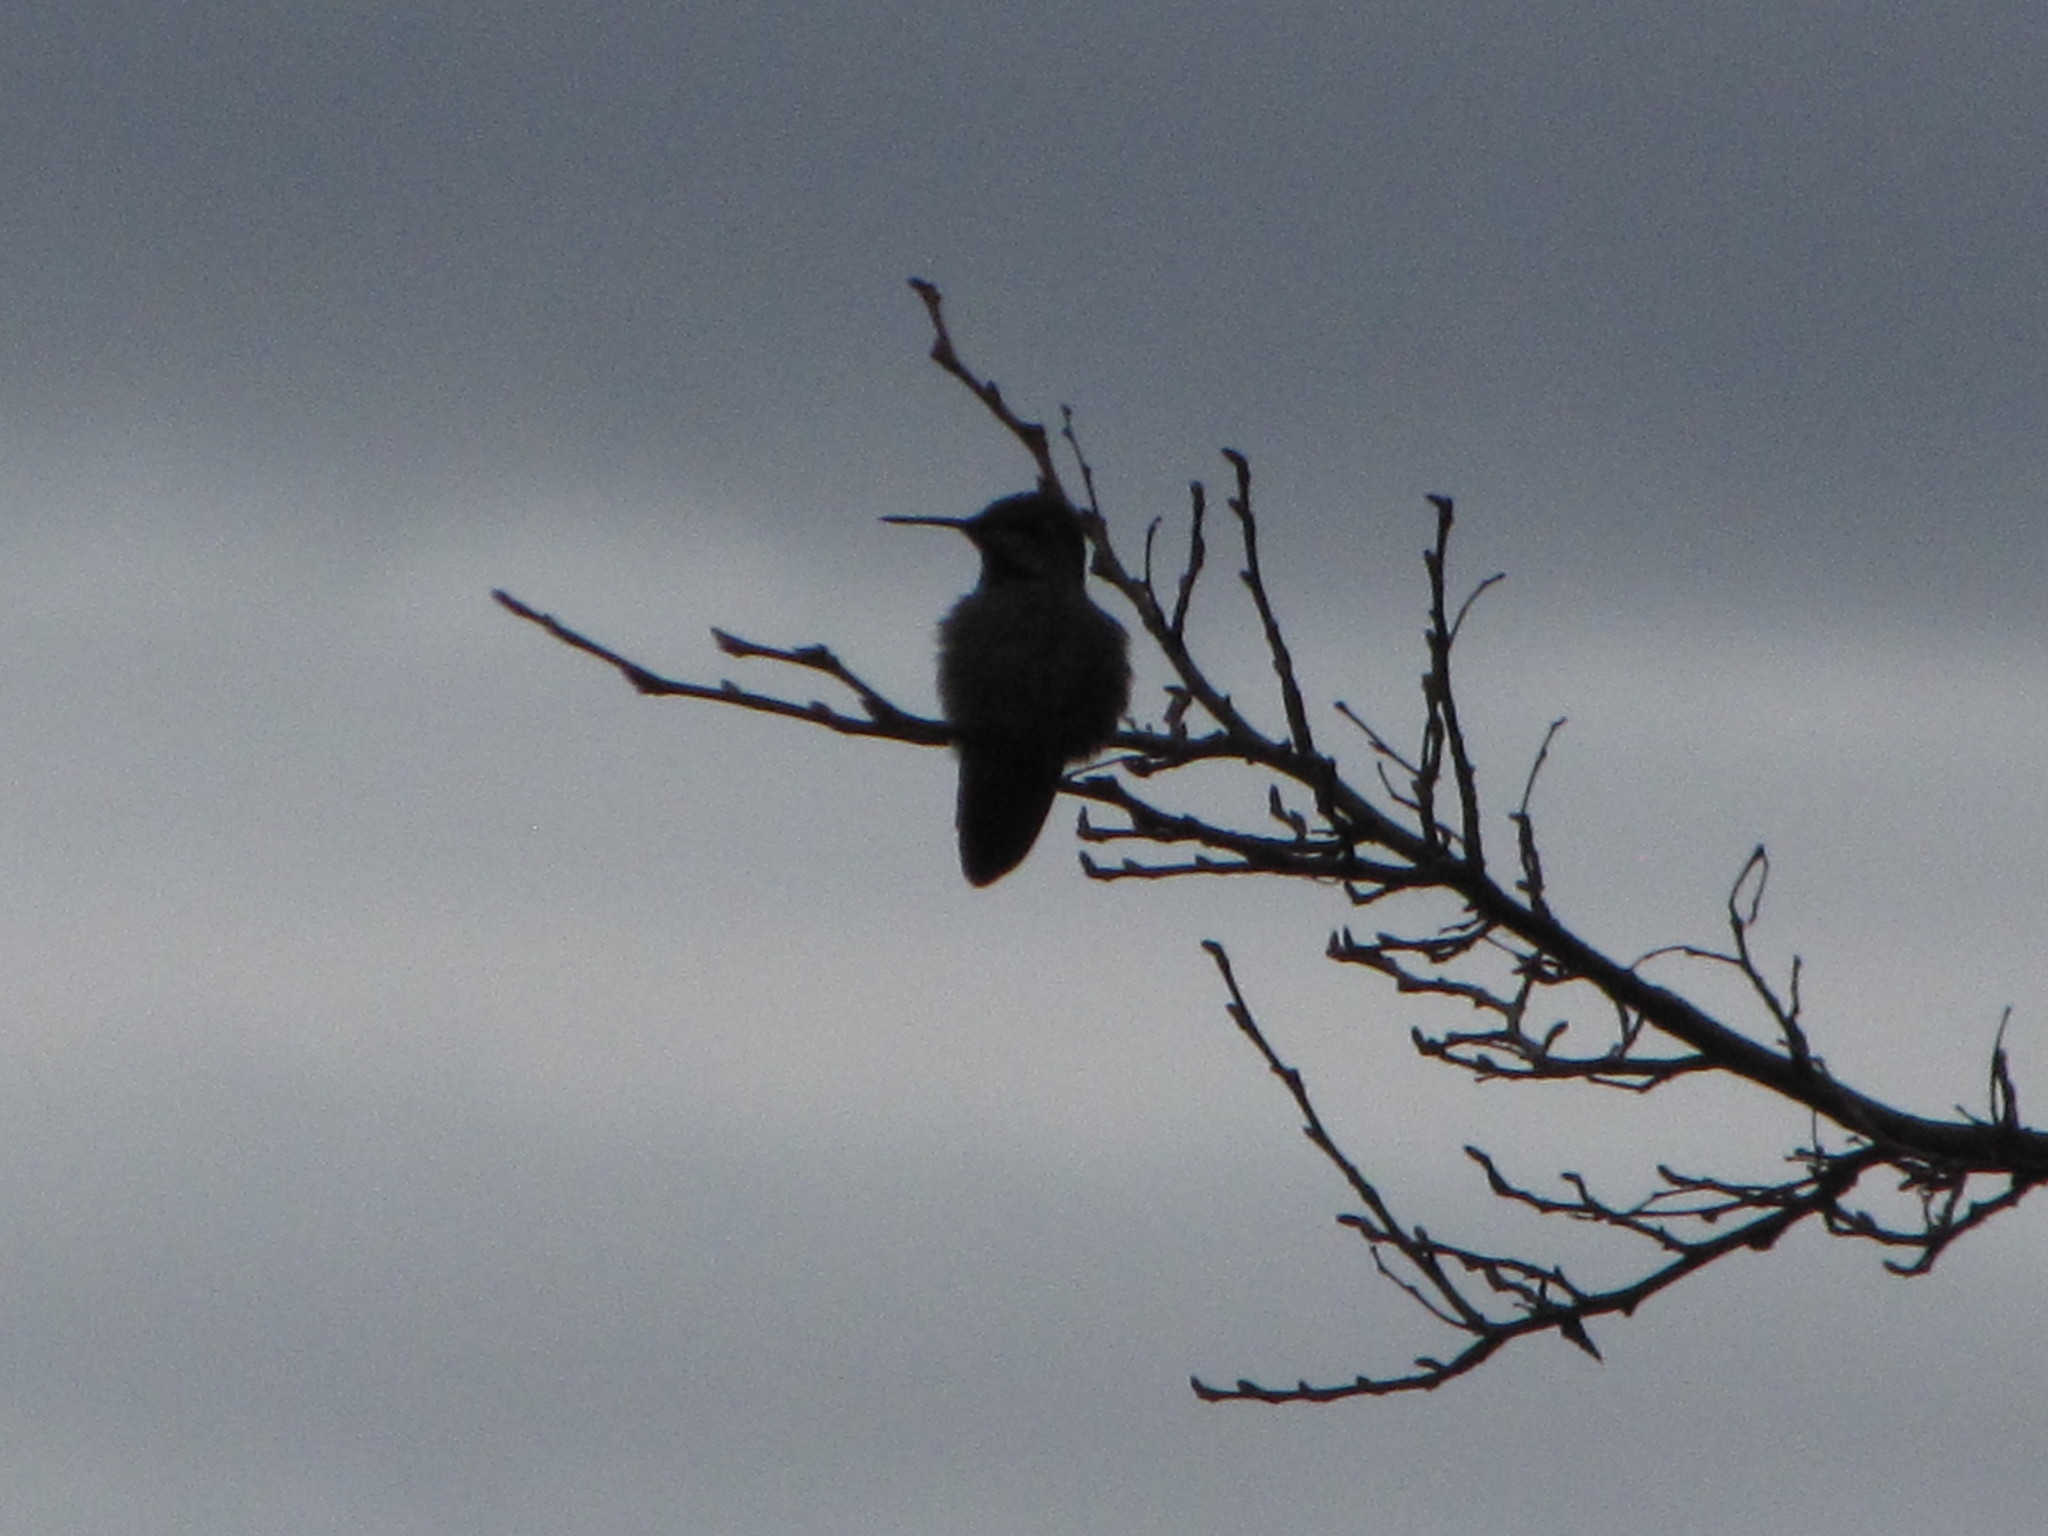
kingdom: Animalia
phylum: Chordata
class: Aves
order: Apodiformes
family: Trochilidae
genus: Calypte
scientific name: Calypte anna
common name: Anna's hummingbird
